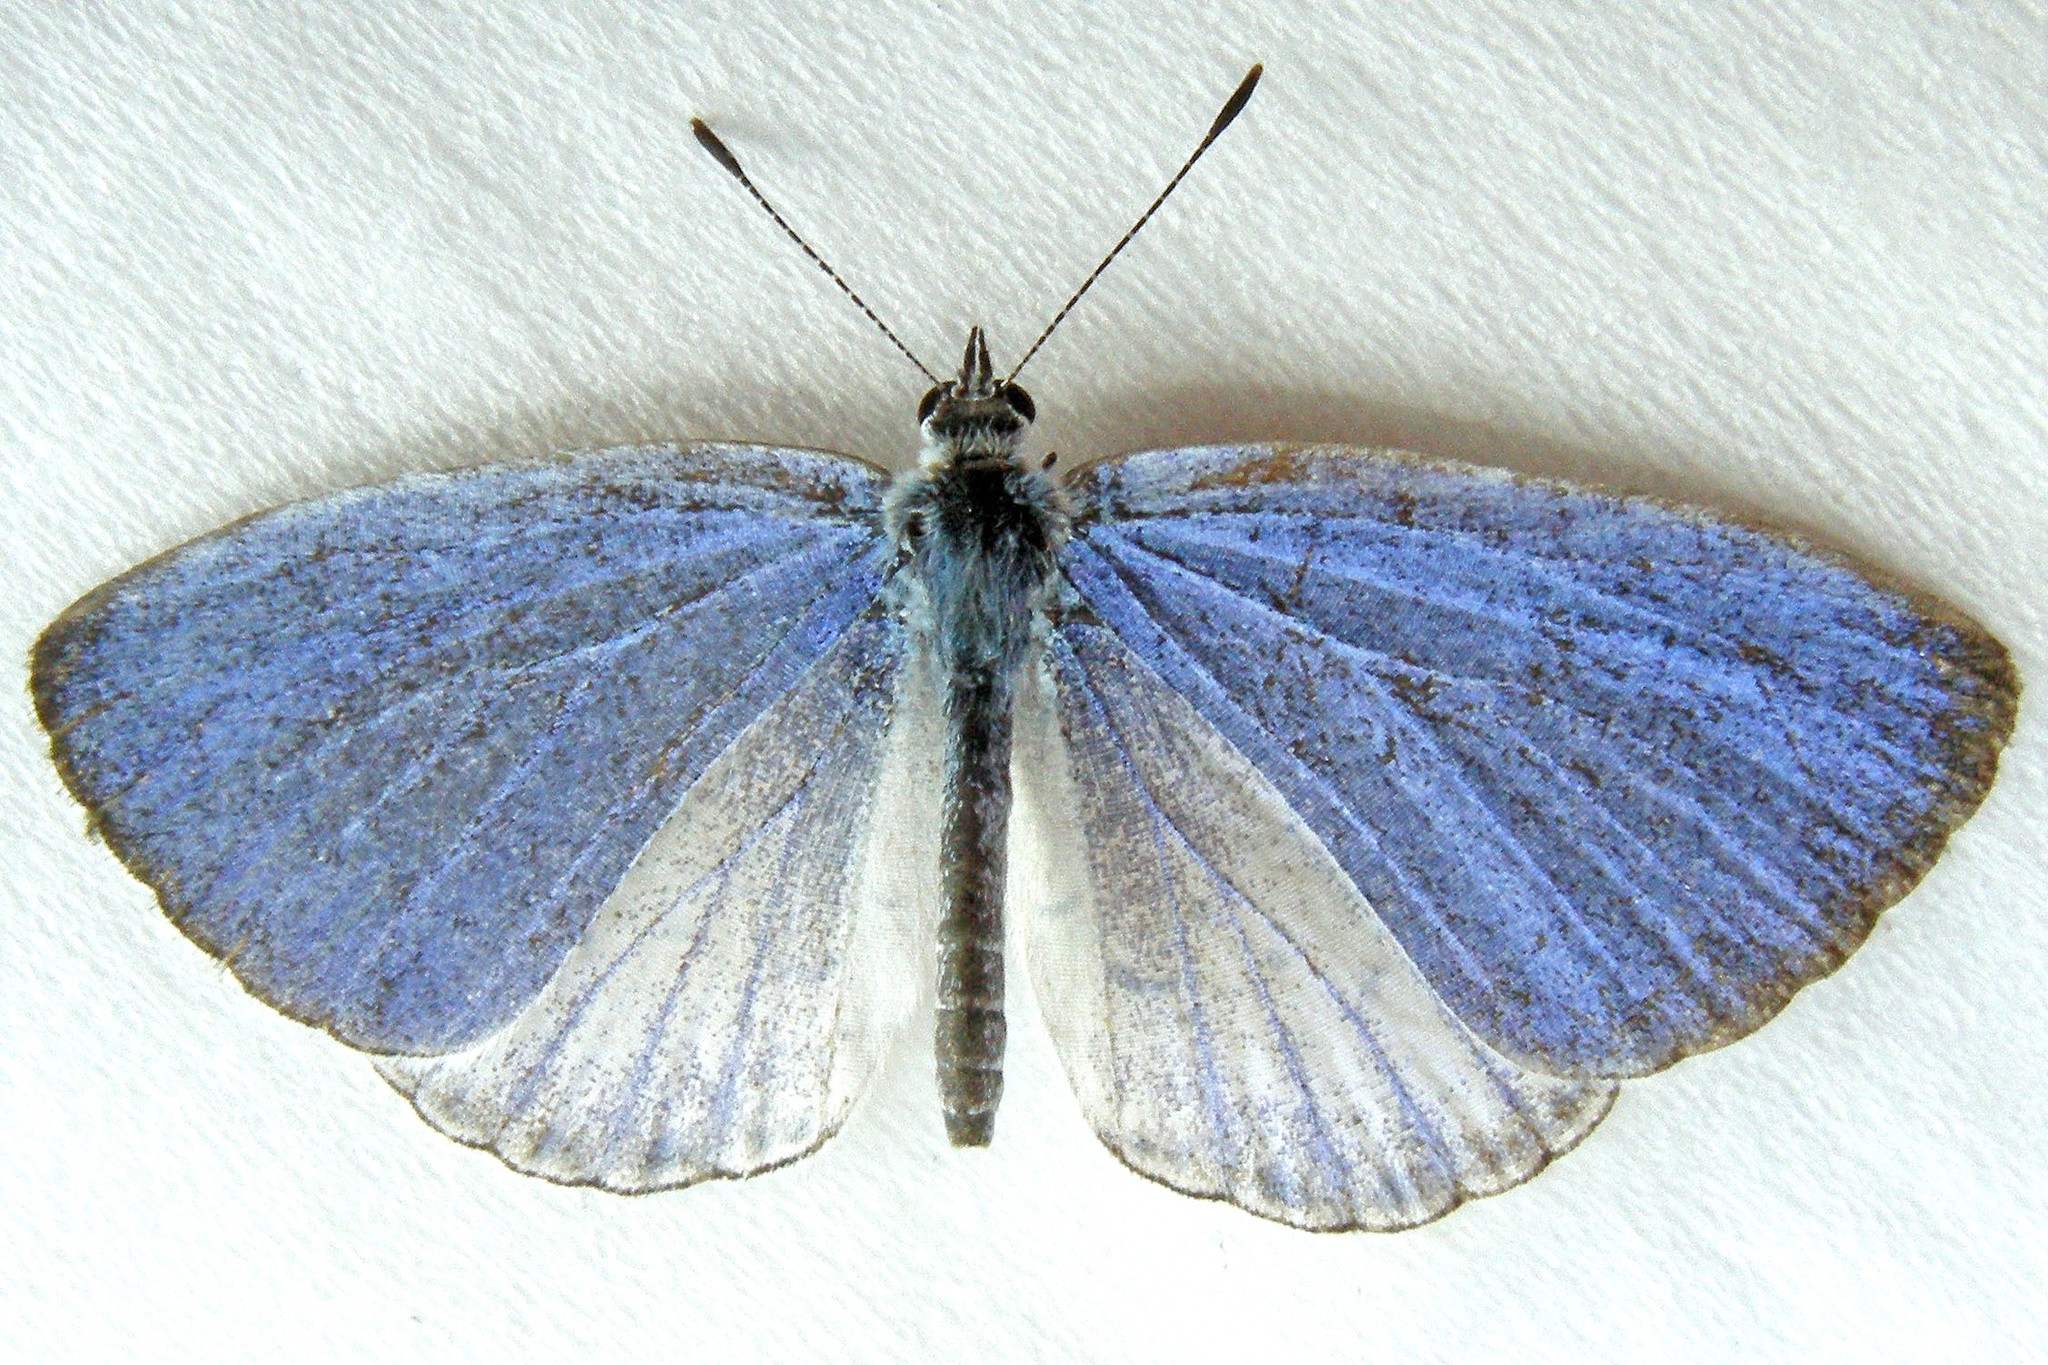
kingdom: Animalia
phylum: Arthropoda
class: Insecta
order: Lepidoptera
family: Lycaenidae
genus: Cyaniris
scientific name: Cyaniris neglecta
